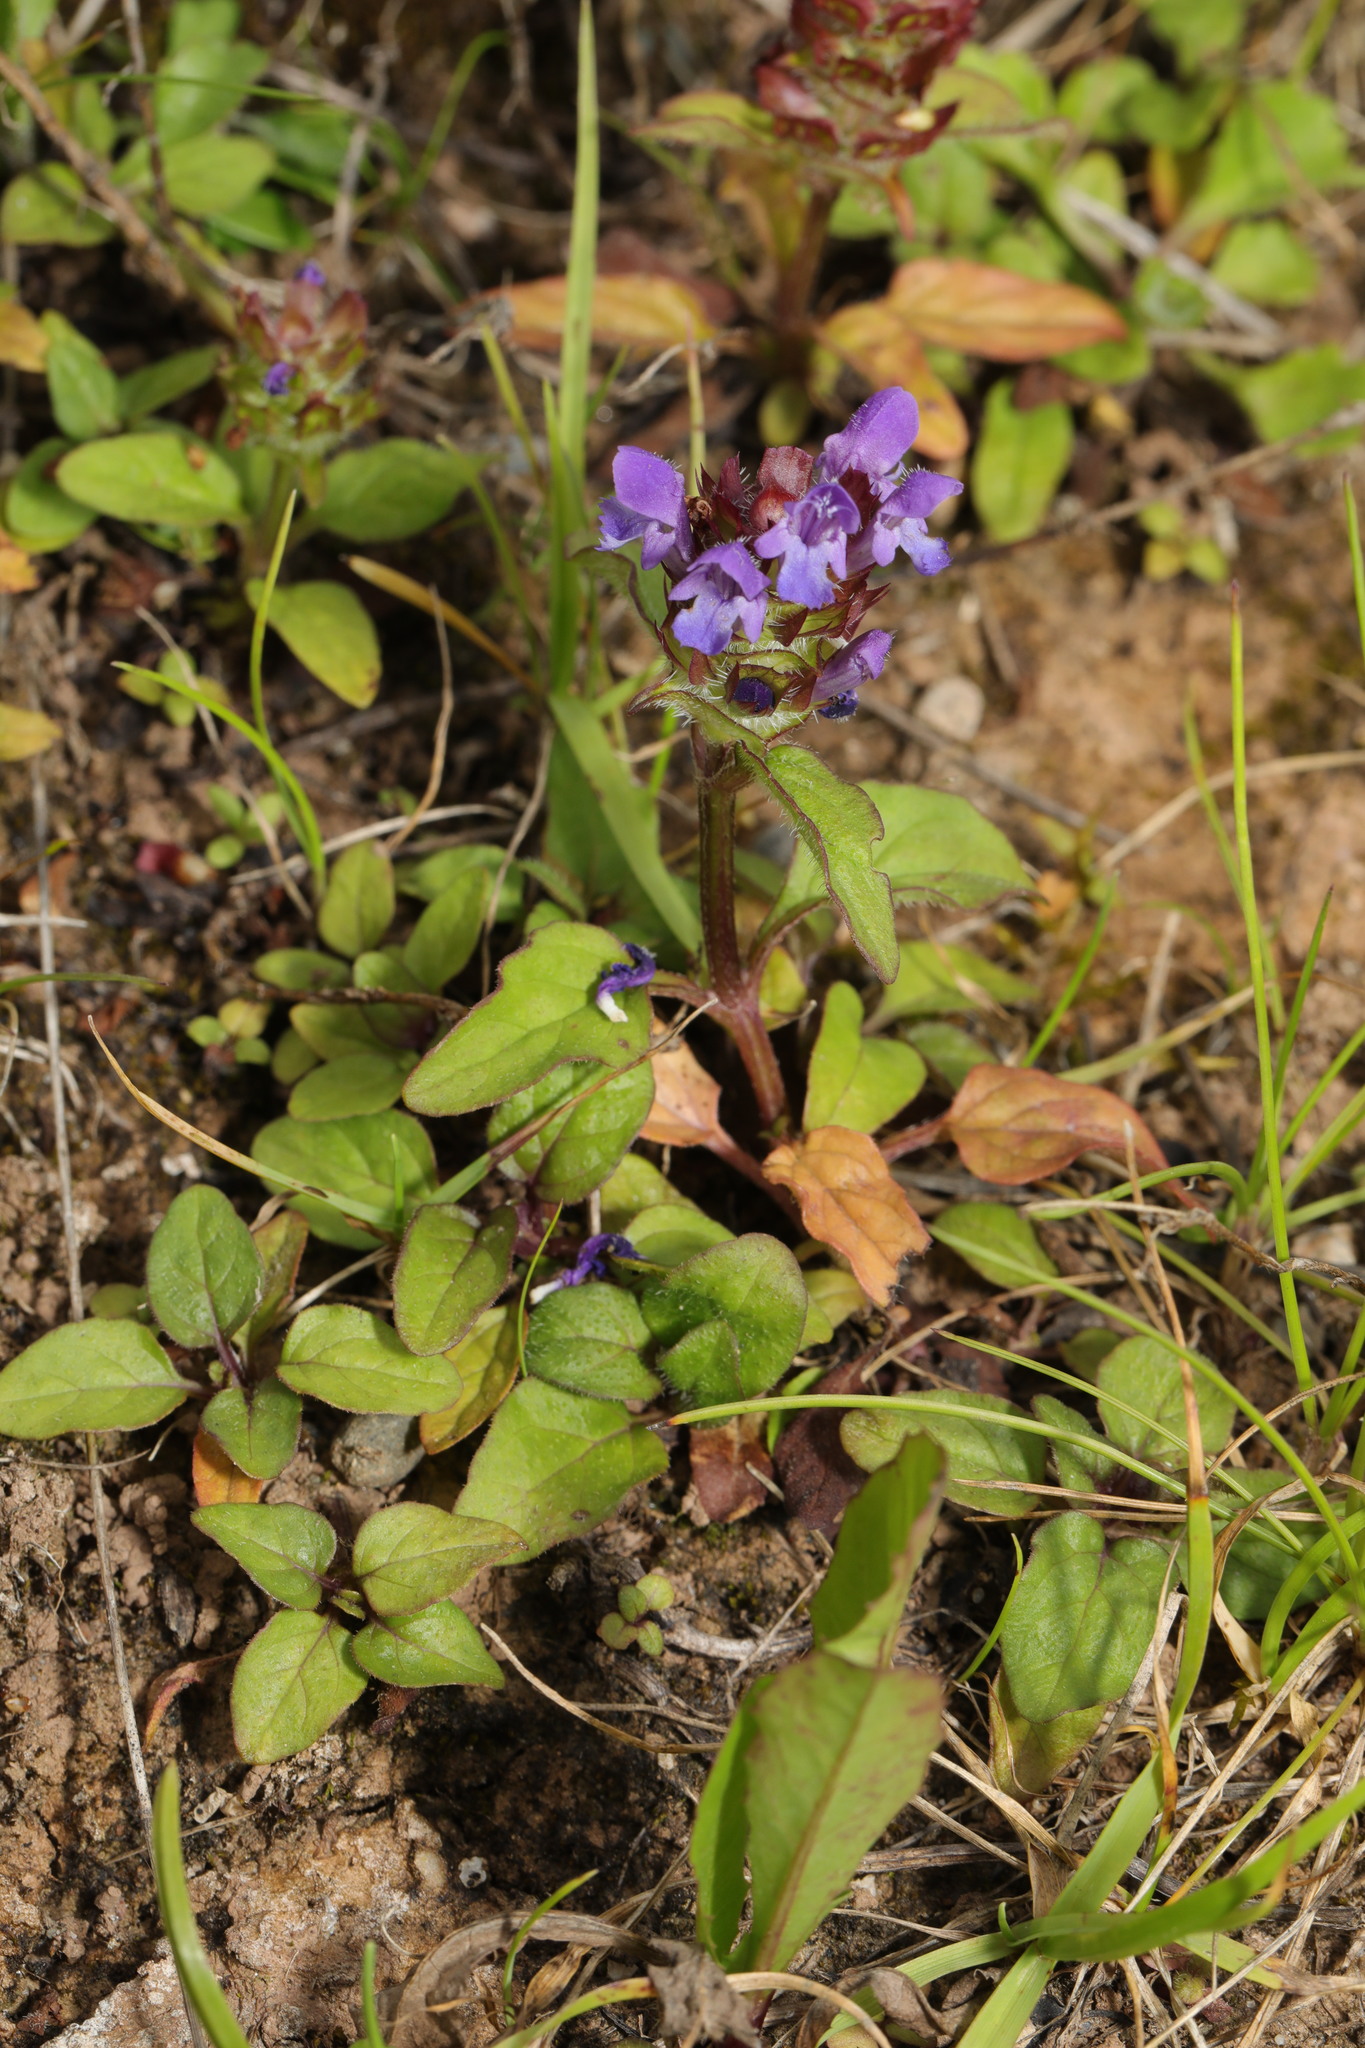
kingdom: Plantae
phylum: Tracheophyta
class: Magnoliopsida
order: Lamiales
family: Lamiaceae
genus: Prunella
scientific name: Prunella vulgaris
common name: Heal-all
